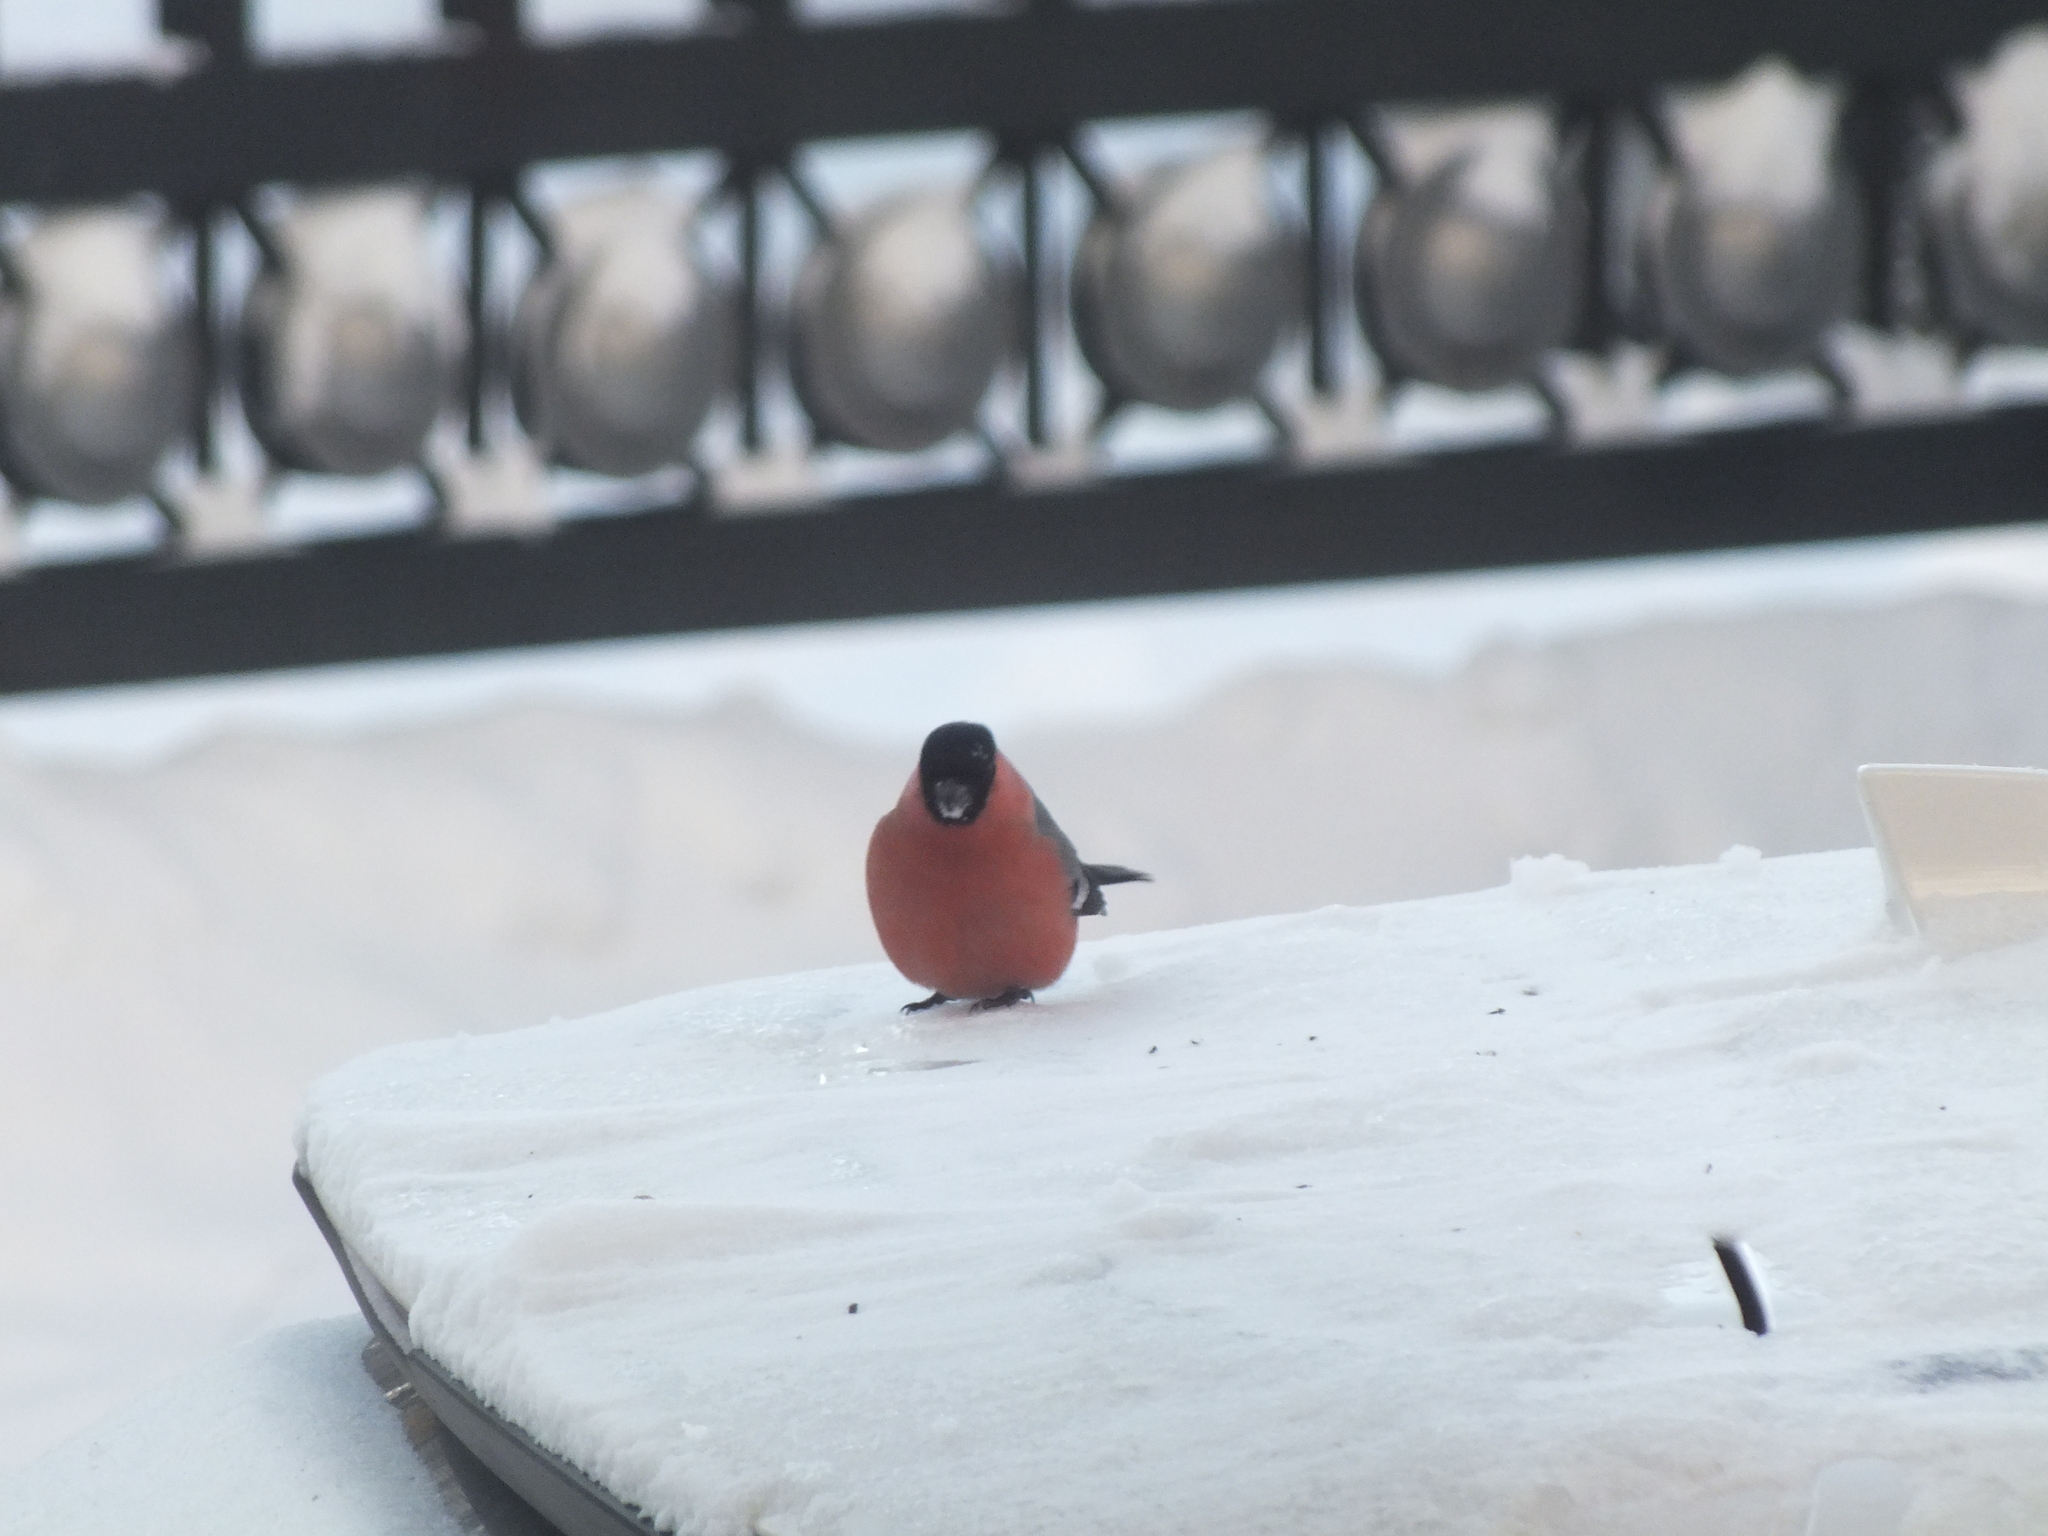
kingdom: Animalia
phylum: Chordata
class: Aves
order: Passeriformes
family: Fringillidae
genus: Pyrrhula
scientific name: Pyrrhula pyrrhula
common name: Eurasian bullfinch
